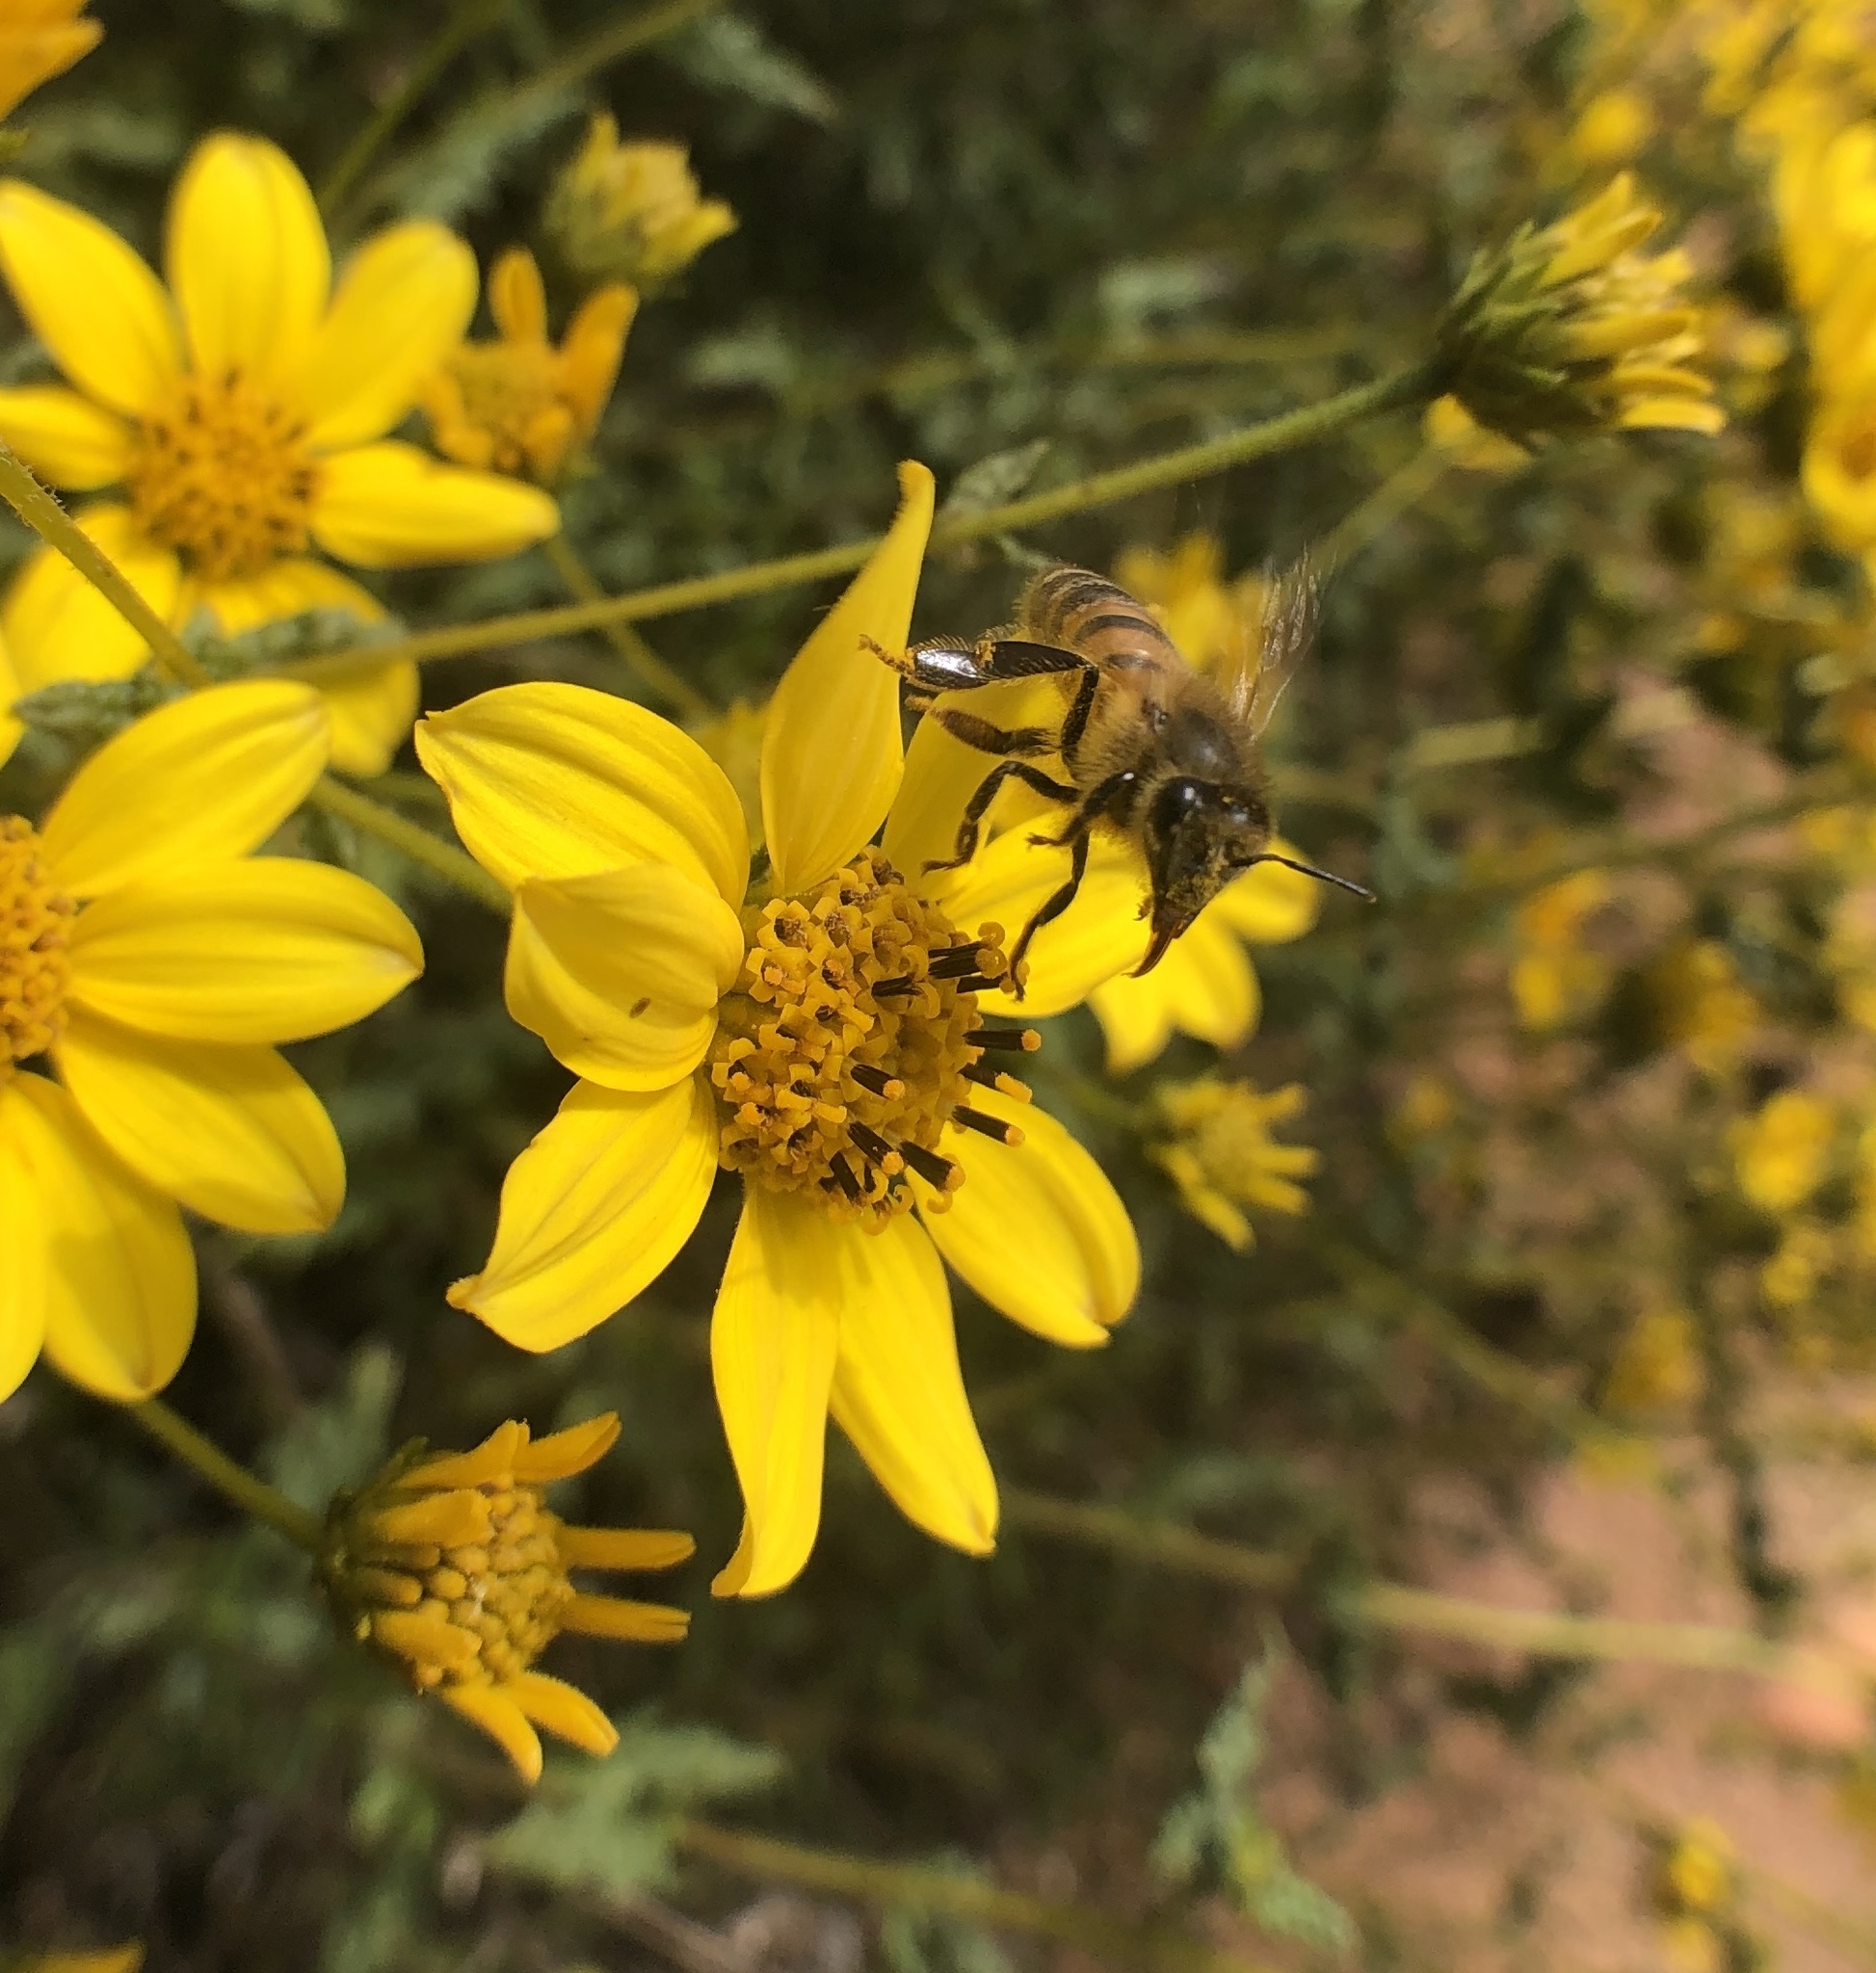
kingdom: Animalia
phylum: Arthropoda
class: Insecta
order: Hymenoptera
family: Apidae
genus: Apis
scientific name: Apis mellifera
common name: Honey bee
